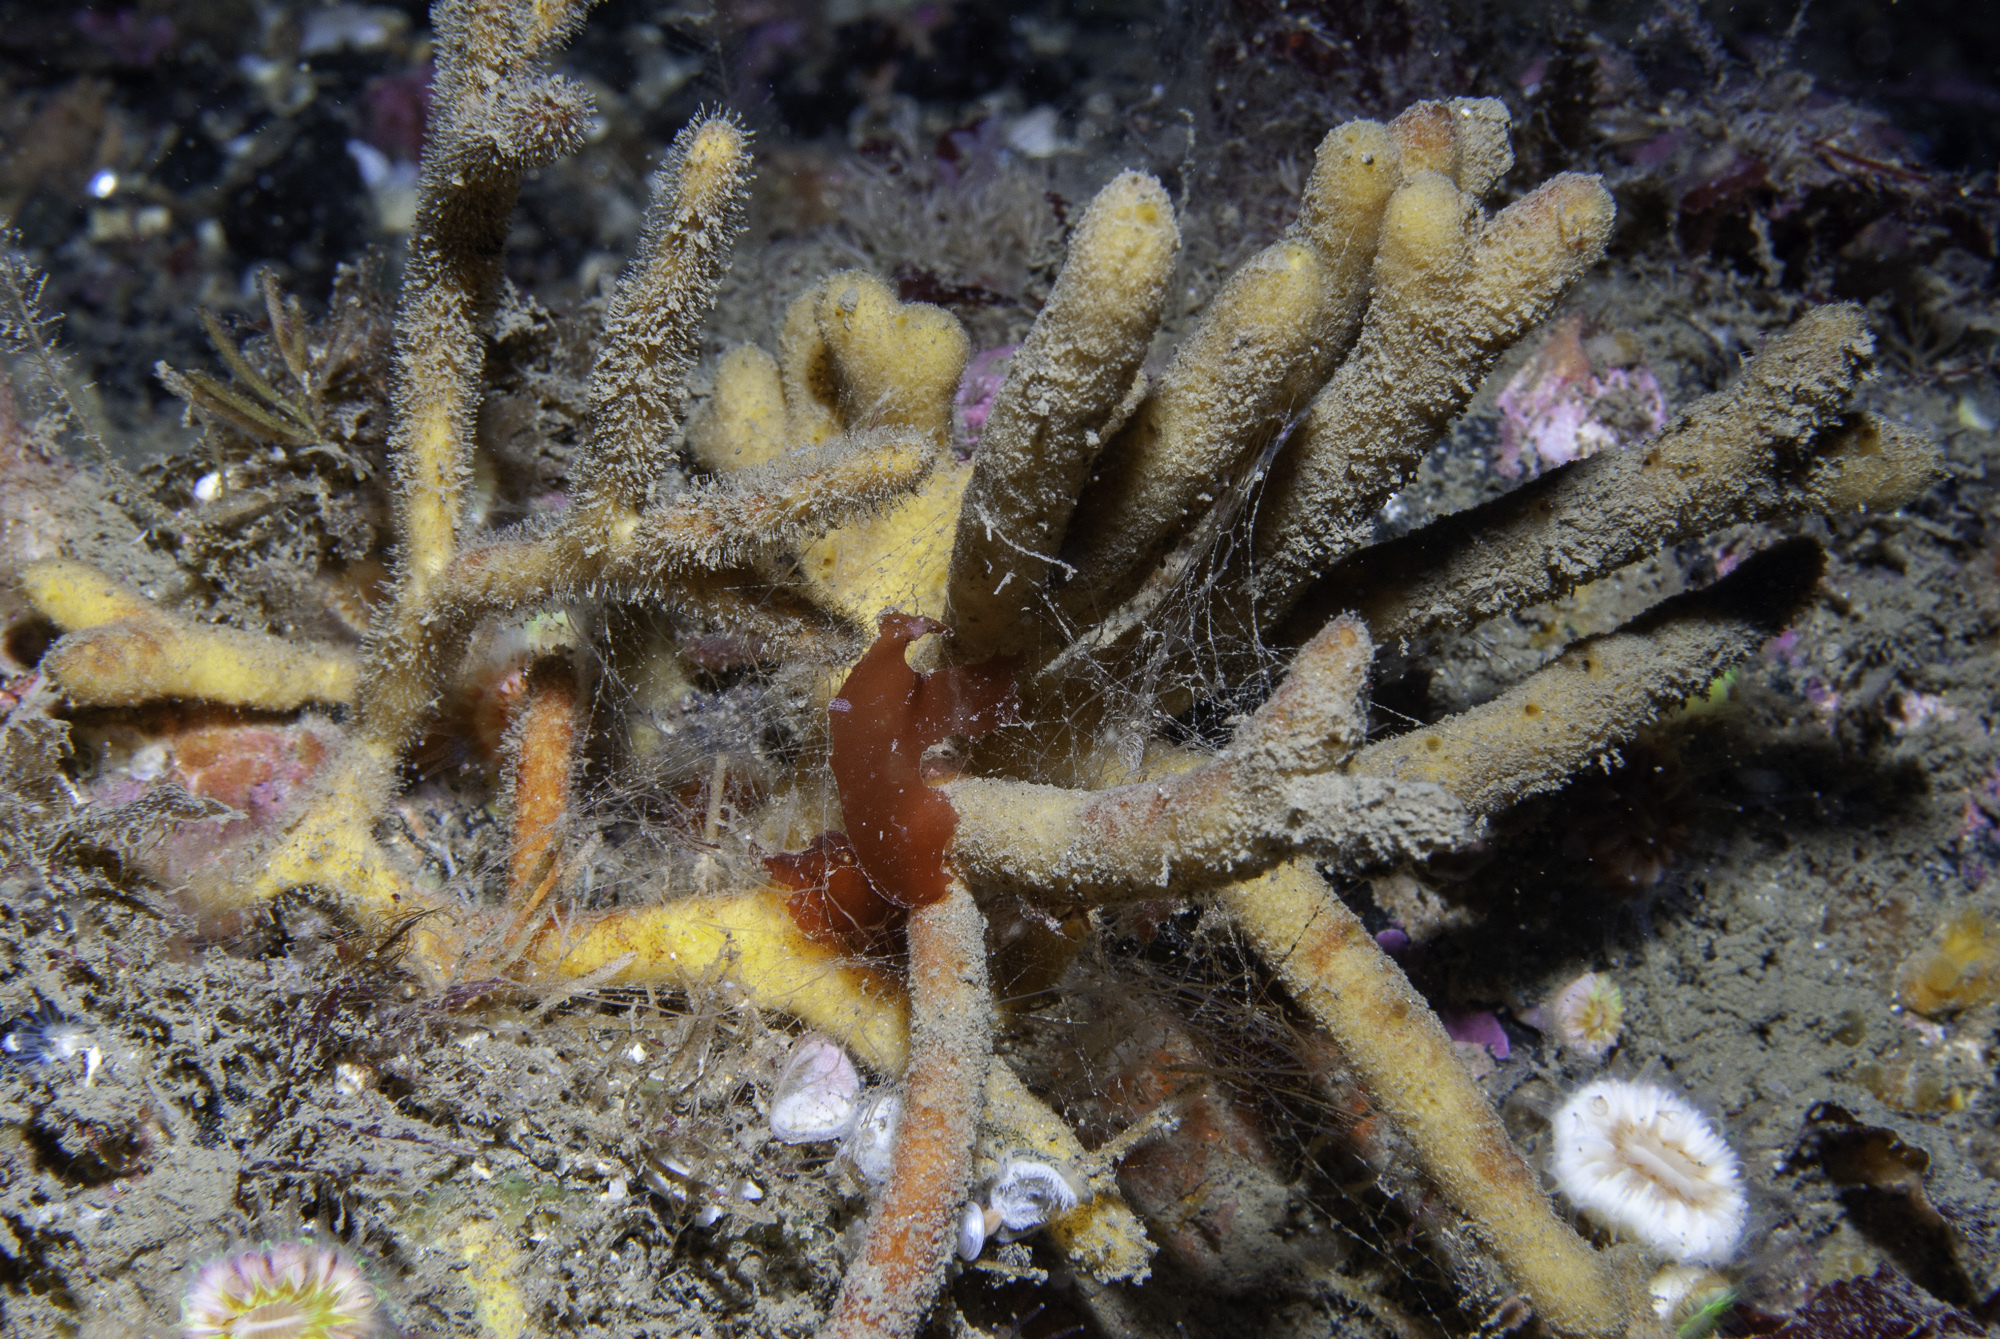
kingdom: Animalia
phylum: Porifera
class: Demospongiae
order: Axinellida
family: Stelligeridae
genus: Stelligera
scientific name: Stelligera stuposa
